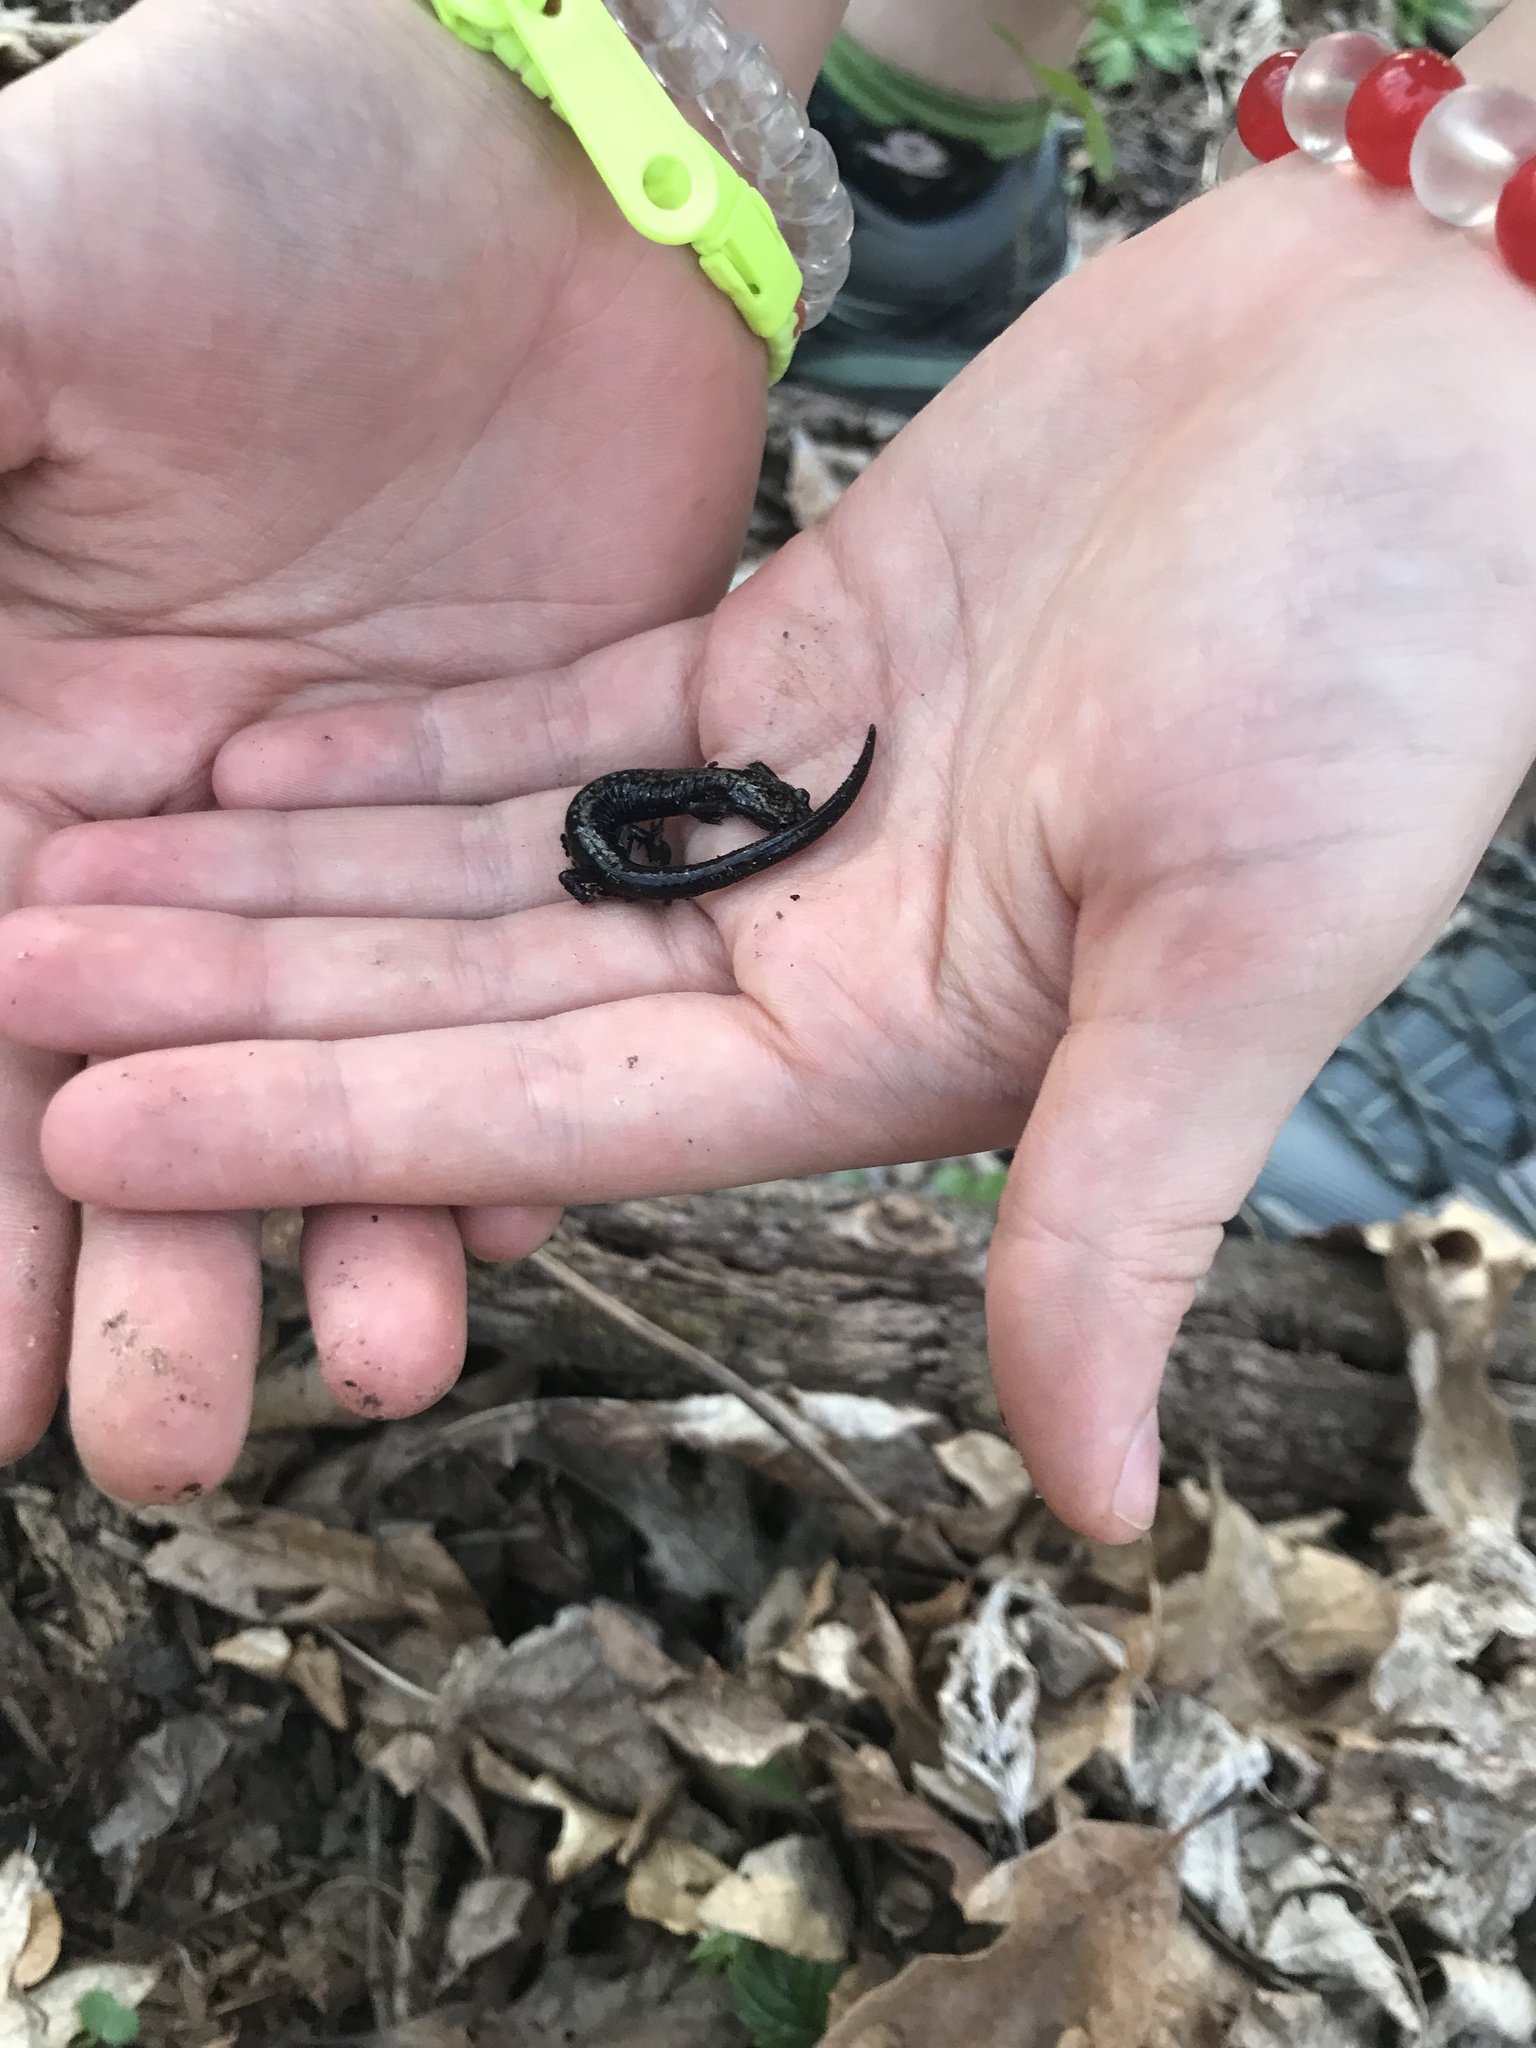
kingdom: Animalia
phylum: Chordata
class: Amphibia
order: Caudata
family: Plethodontidae
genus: Plethodon
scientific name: Plethodon hubrichti
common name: Peaks of otter salamander
